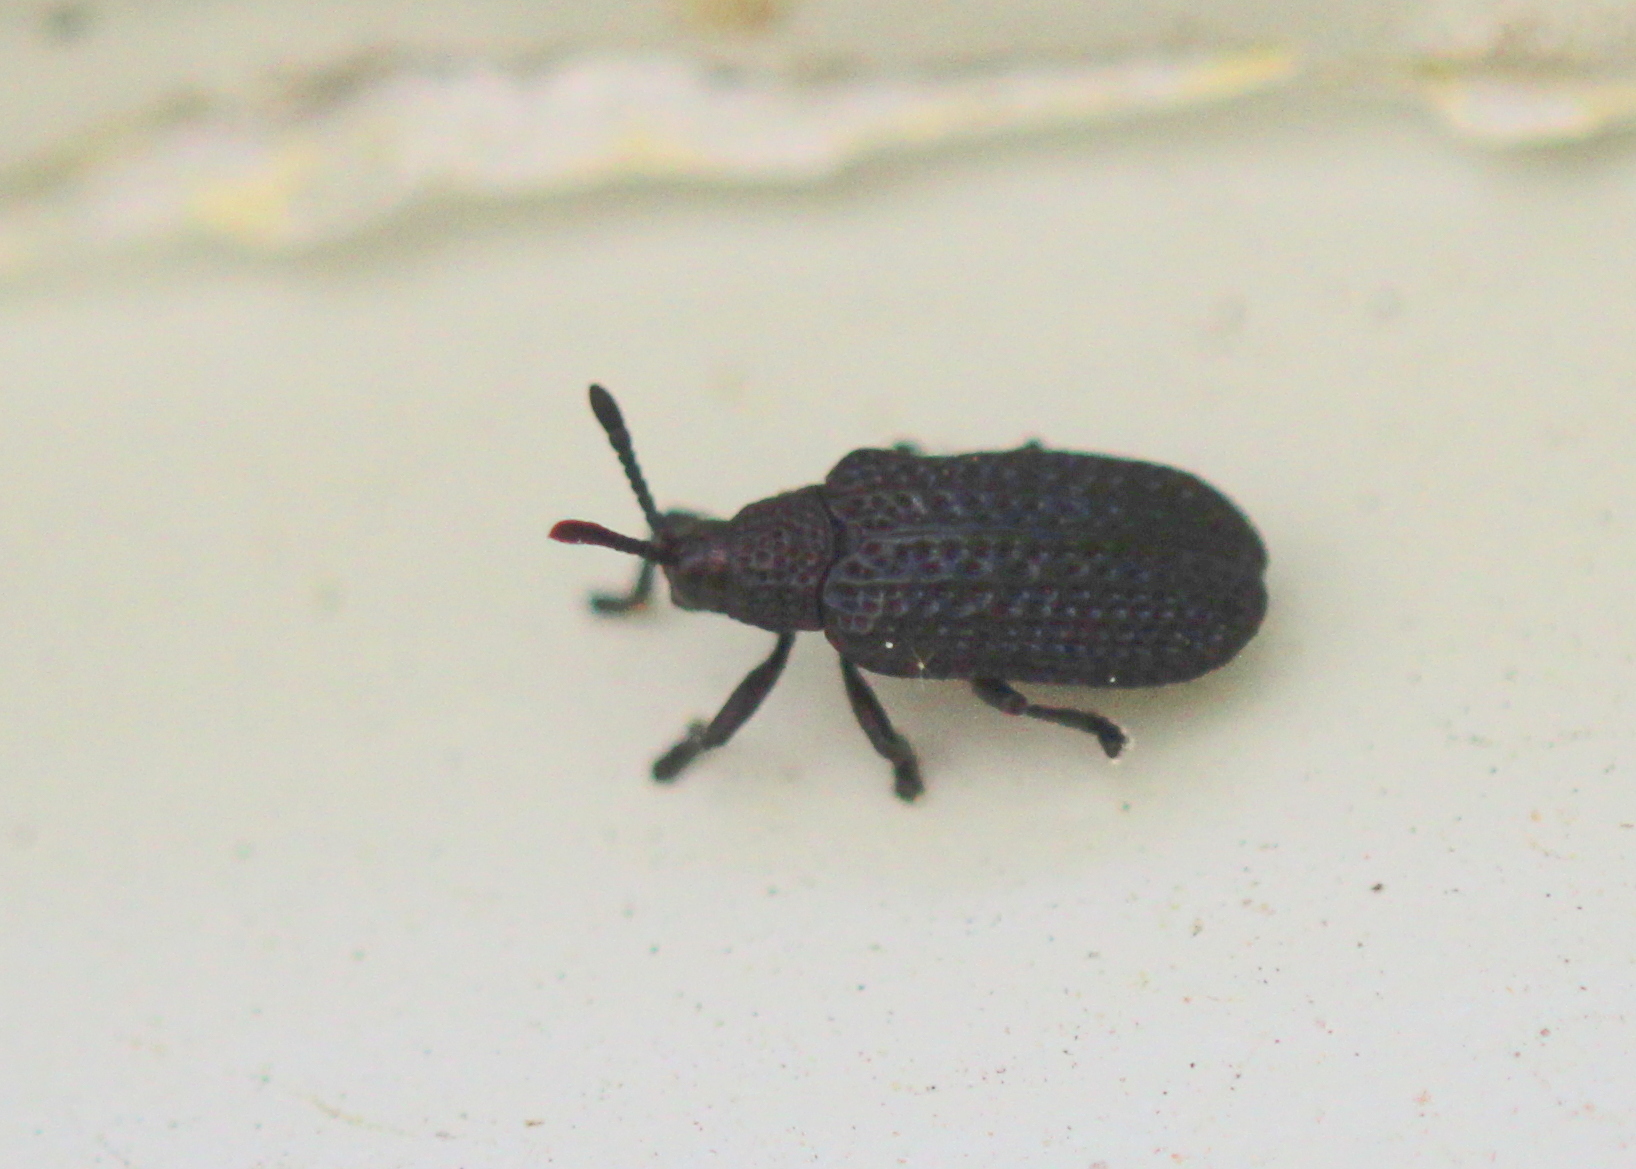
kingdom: Animalia
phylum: Arthropoda
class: Insecta
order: Coleoptera
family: Chrysomelidae
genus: Microrhopala
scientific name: Microrhopala excavata
